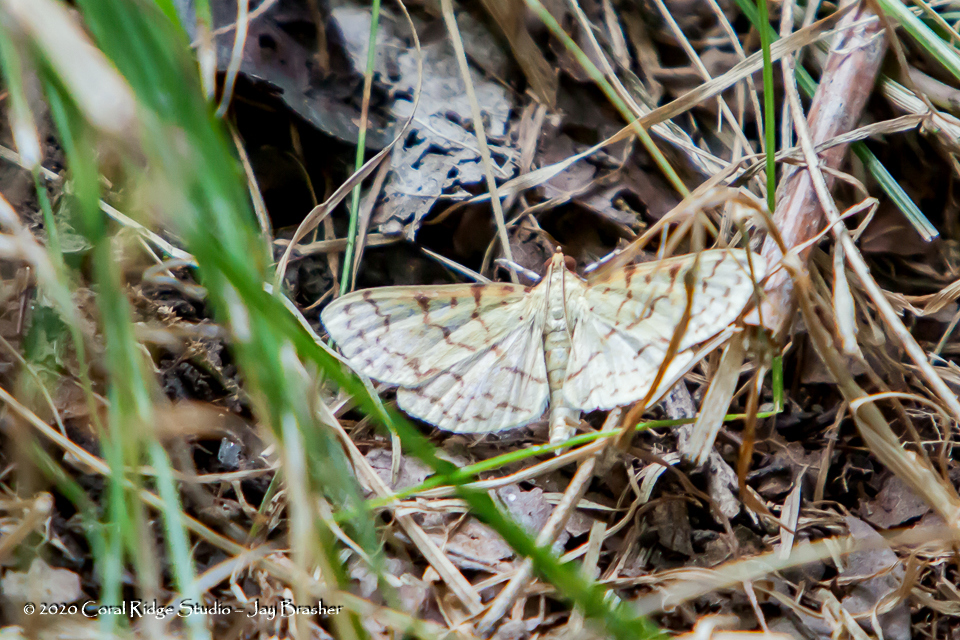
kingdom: Animalia
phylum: Arthropoda
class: Insecta
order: Lepidoptera
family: Crambidae
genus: Polygrammodes
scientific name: Polygrammodes flavidalis
